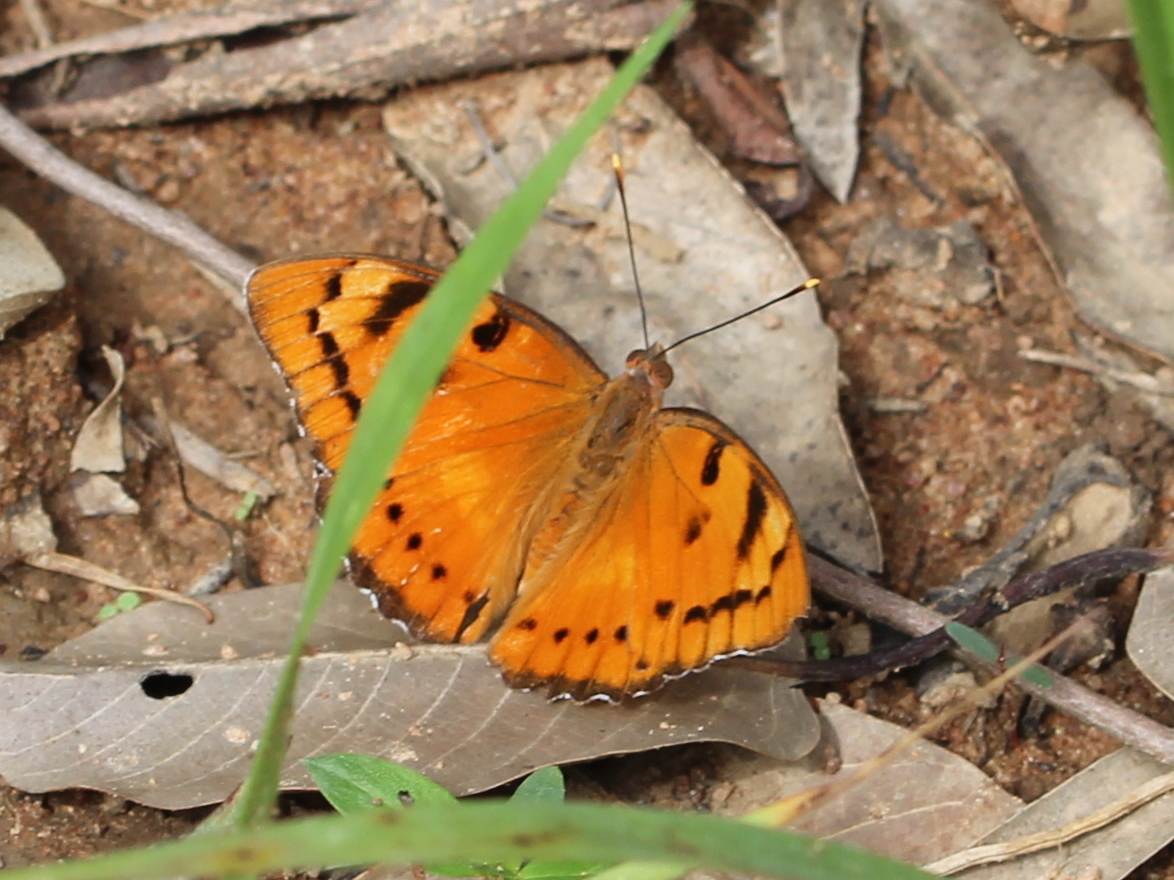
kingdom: Animalia
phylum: Arthropoda
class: Insecta
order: Lepidoptera
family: Nymphalidae
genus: Euthalia
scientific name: Euthalia nais
